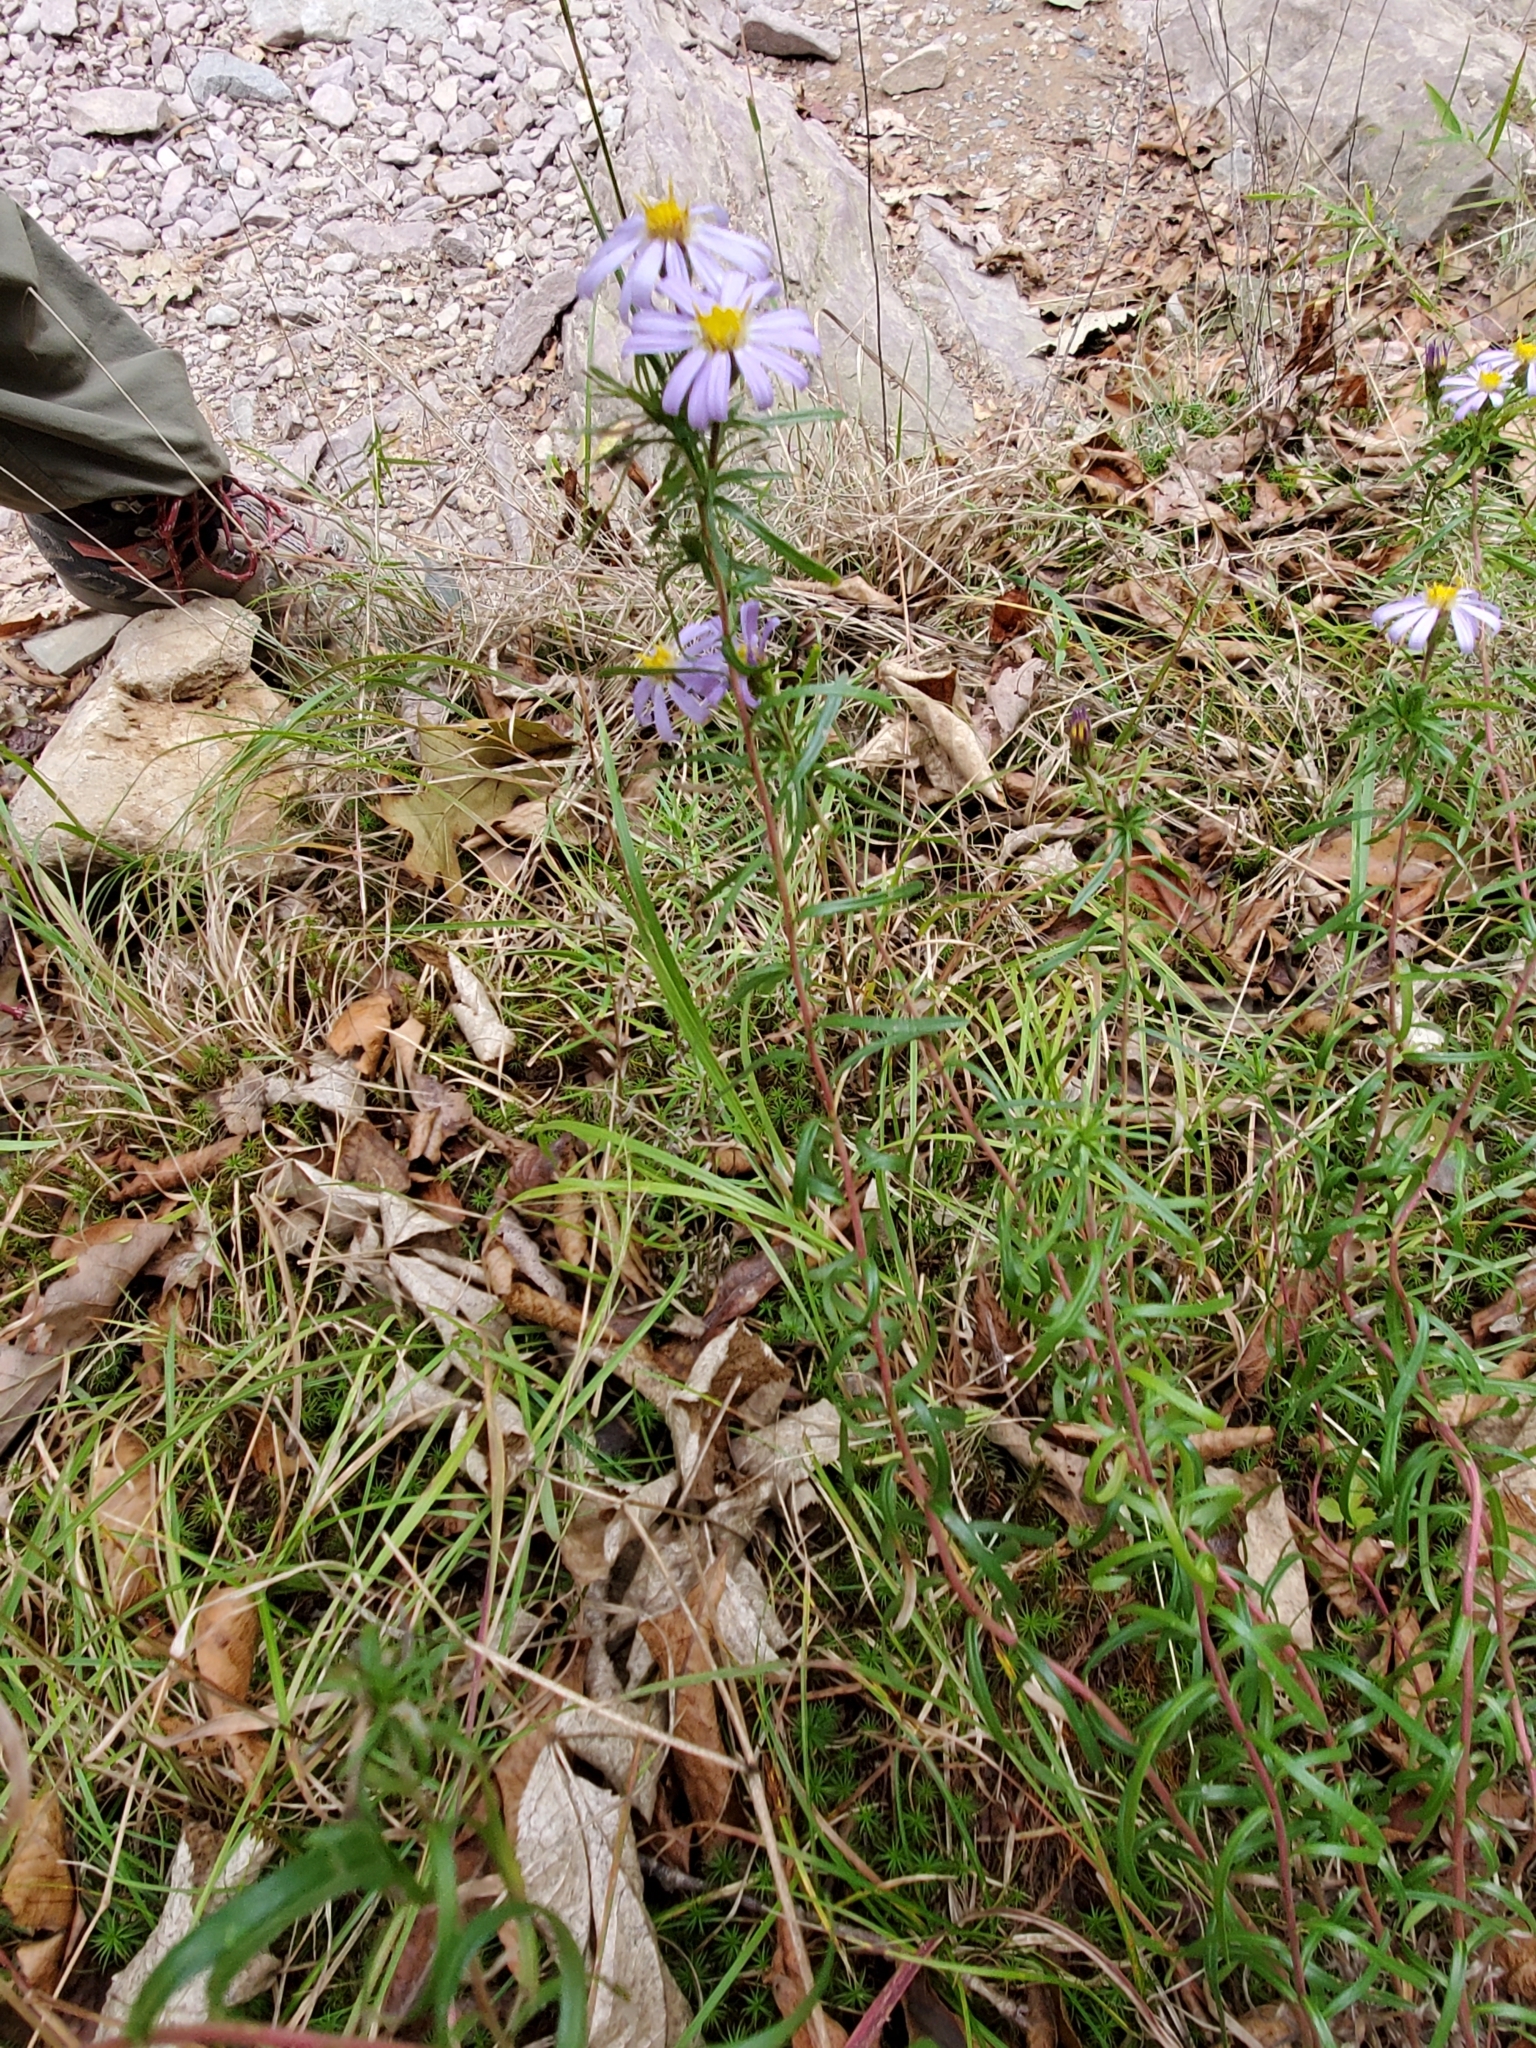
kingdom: Plantae
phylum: Tracheophyta
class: Magnoliopsida
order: Asterales
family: Asteraceae
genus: Ionactis
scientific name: Ionactis linariifolia
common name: Flax-leaf aster
